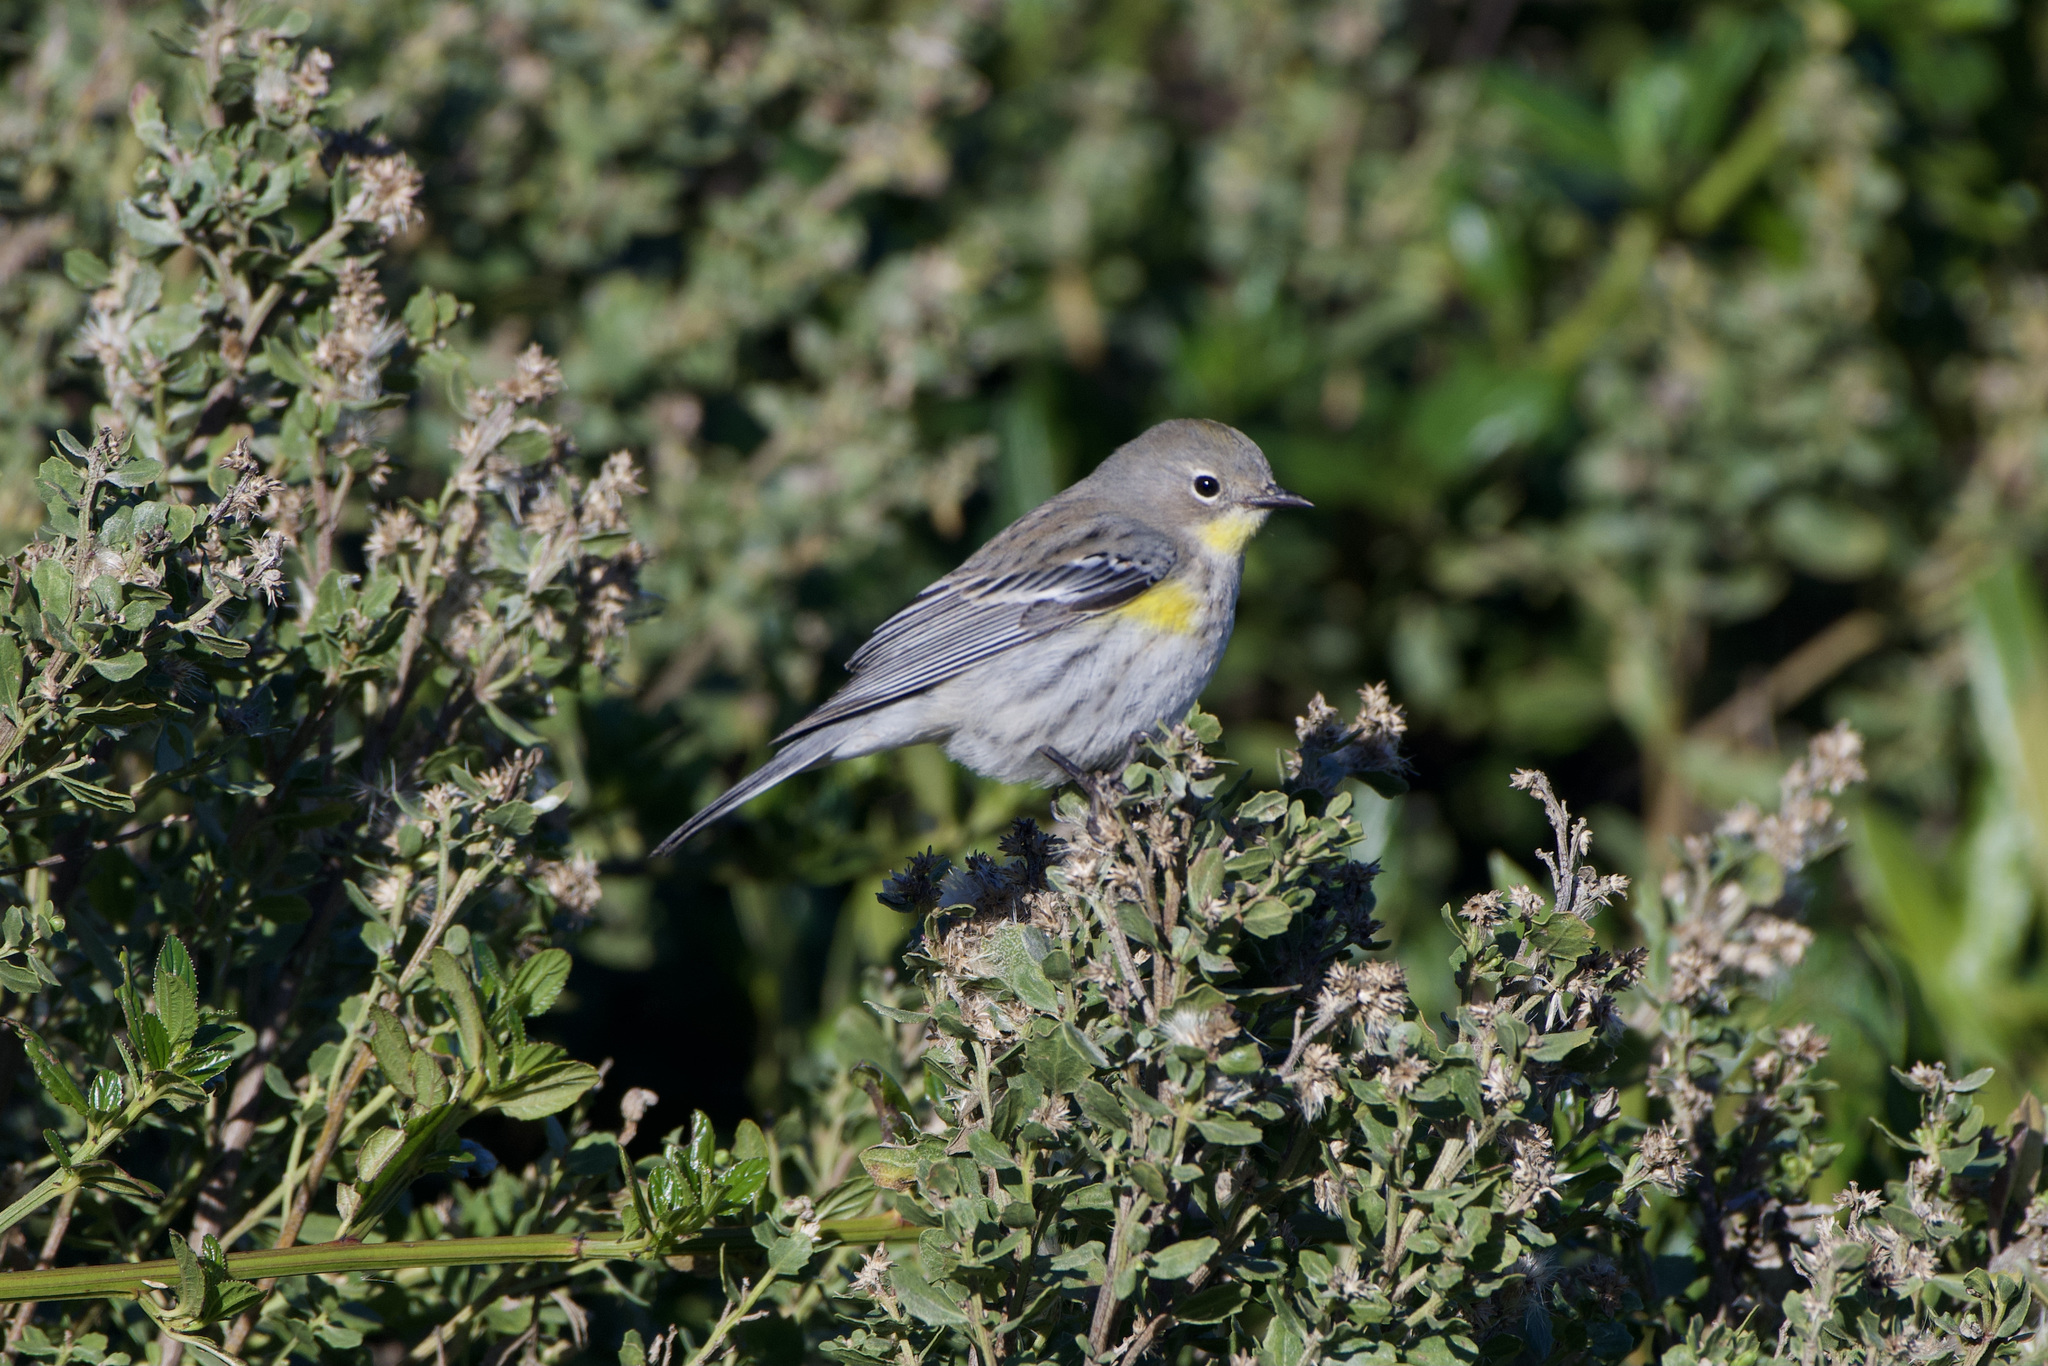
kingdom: Animalia
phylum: Chordata
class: Aves
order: Passeriformes
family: Parulidae
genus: Setophaga
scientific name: Setophaga coronata
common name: Myrtle warbler
